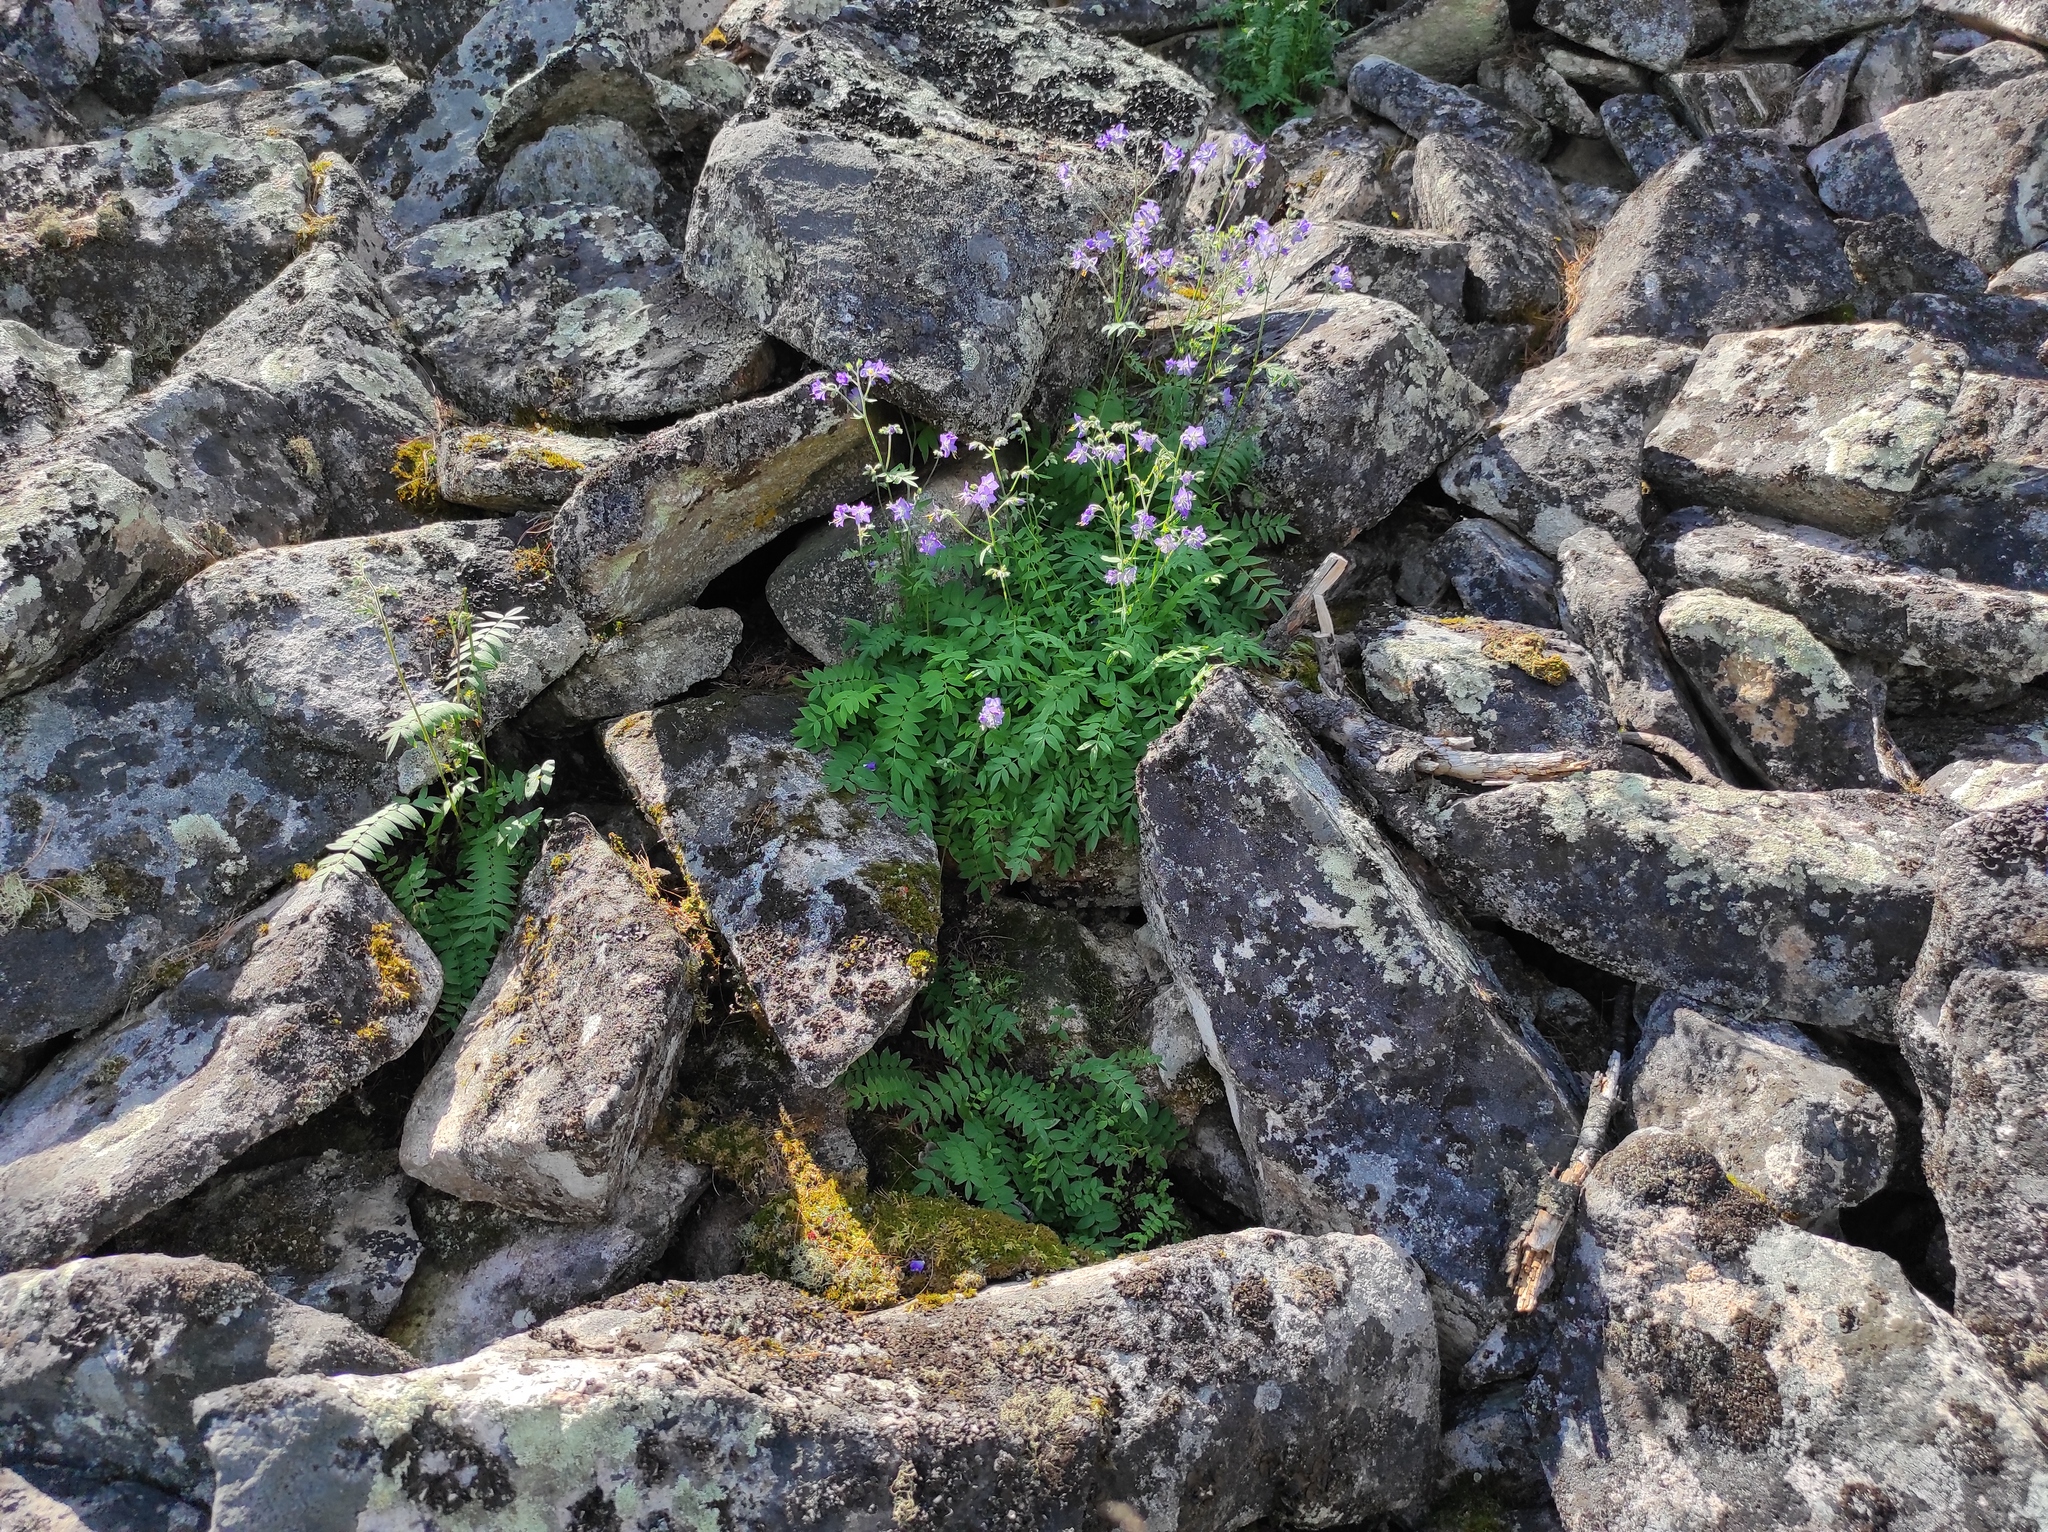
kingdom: Plantae
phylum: Tracheophyta
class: Magnoliopsida
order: Ericales
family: Polemoniaceae
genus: Polemonium
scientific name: Polemonium acutiflorum
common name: Tall jacob's-ladder
